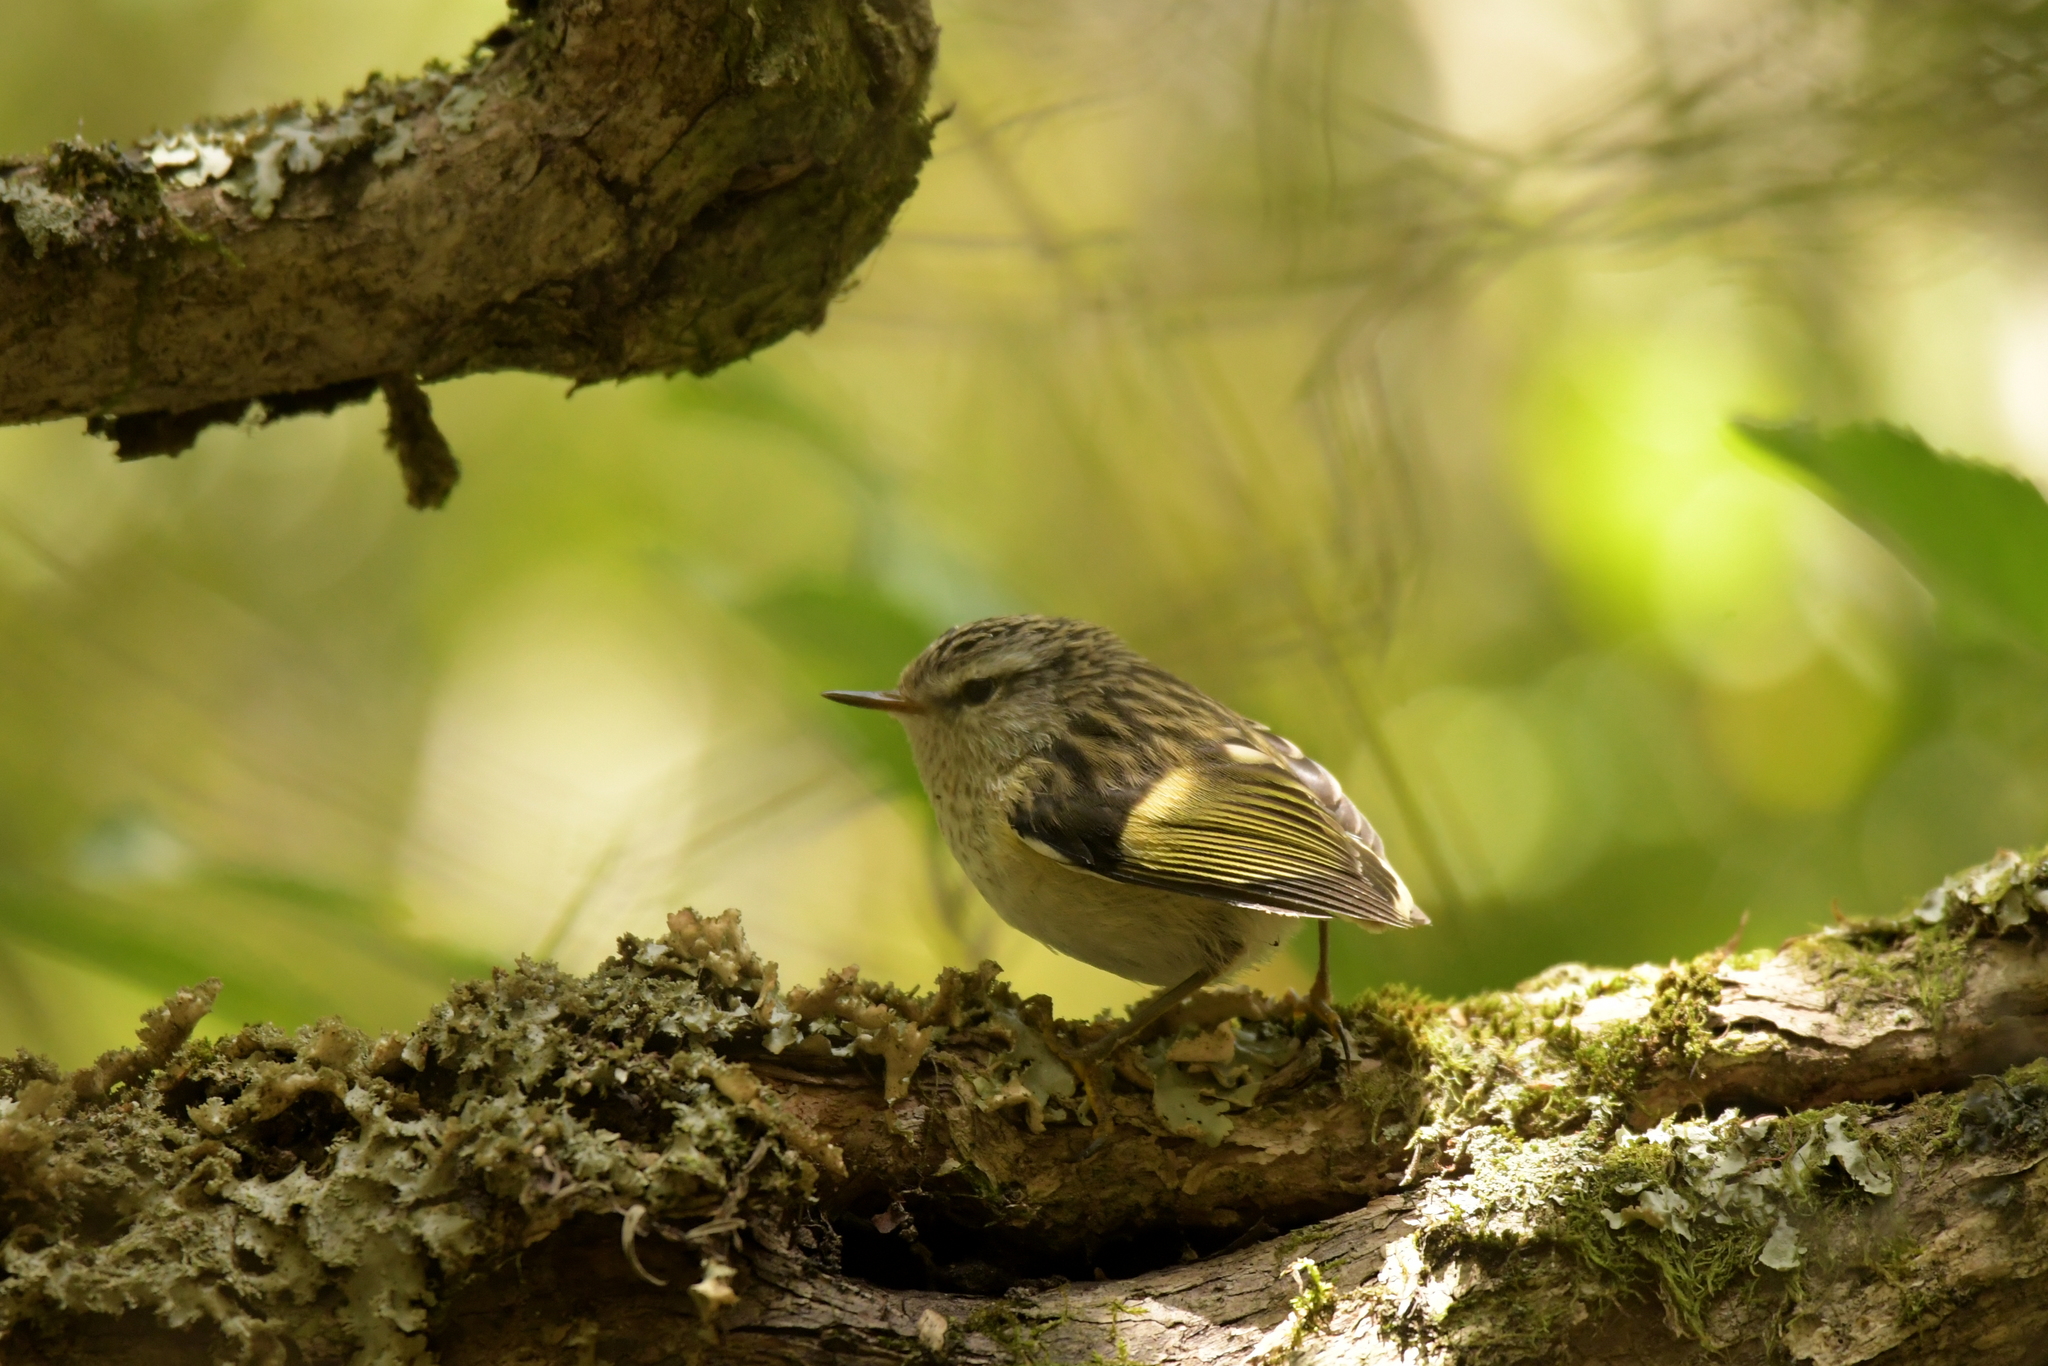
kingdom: Animalia
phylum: Chordata
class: Aves
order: Passeriformes
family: Acanthisittidae
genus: Acanthisitta
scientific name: Acanthisitta chloris
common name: Rifleman
